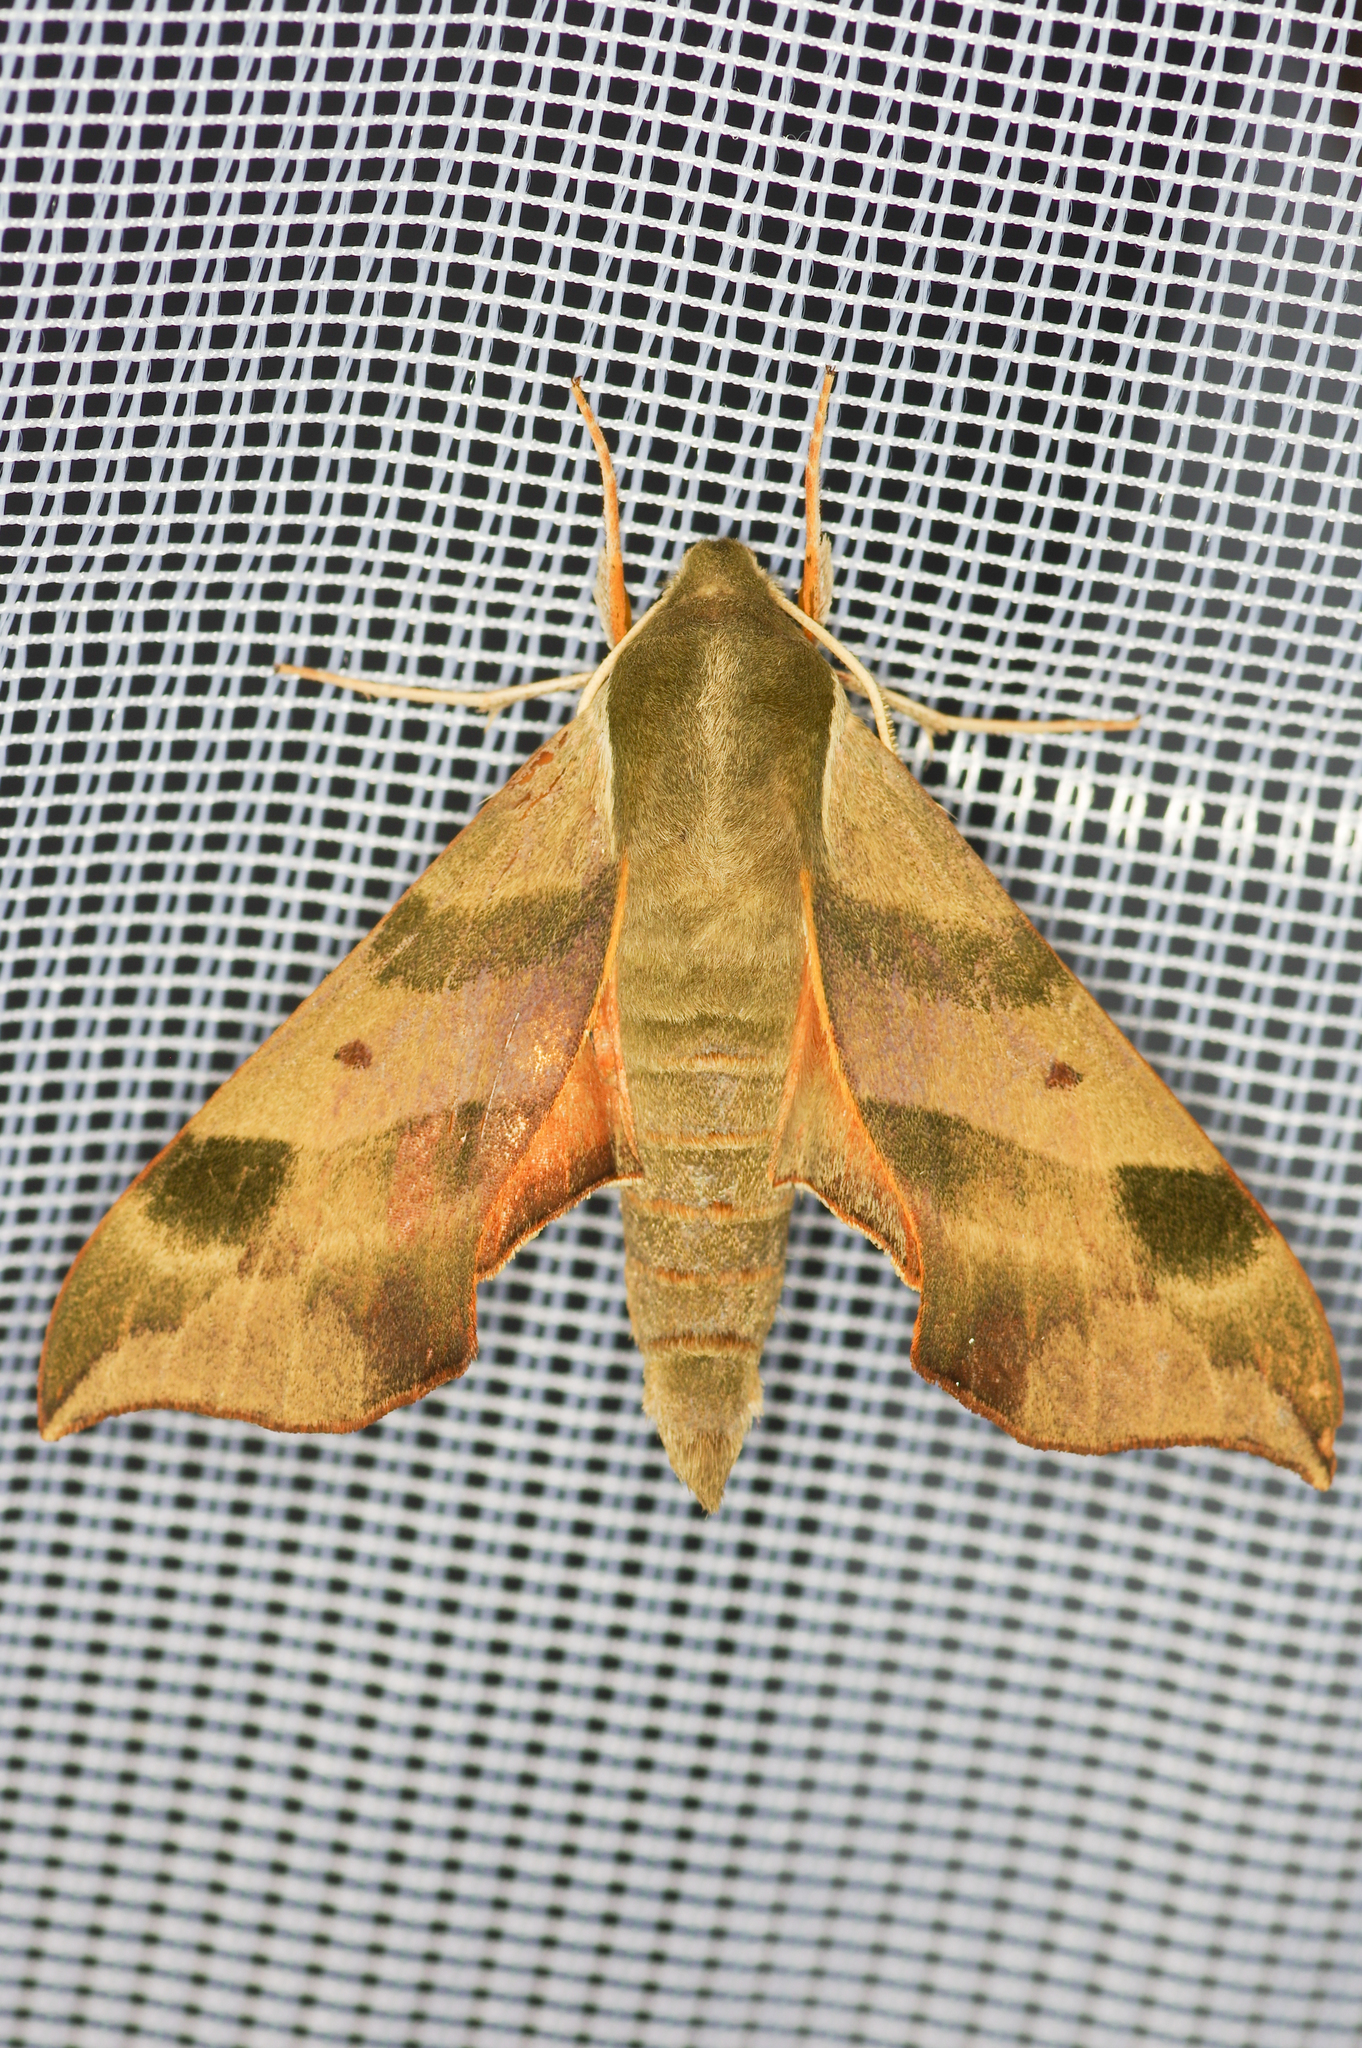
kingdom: Animalia
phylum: Arthropoda
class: Insecta
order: Lepidoptera
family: Sphingidae
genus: Darapsa
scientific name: Darapsa myron
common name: Hog sphinx
